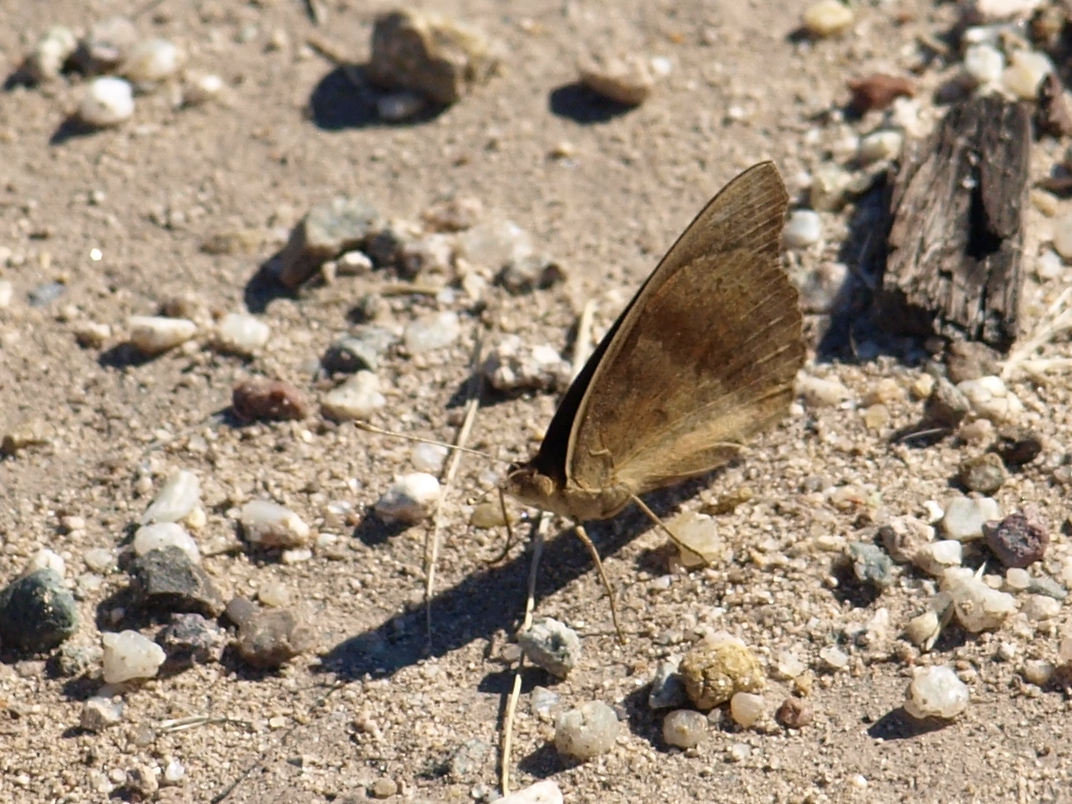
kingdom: Animalia
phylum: Arthropoda
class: Insecta
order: Lepidoptera
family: Nymphalidae
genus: Junonia
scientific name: Junonia nigrosuffusa
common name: Dark buckeye
